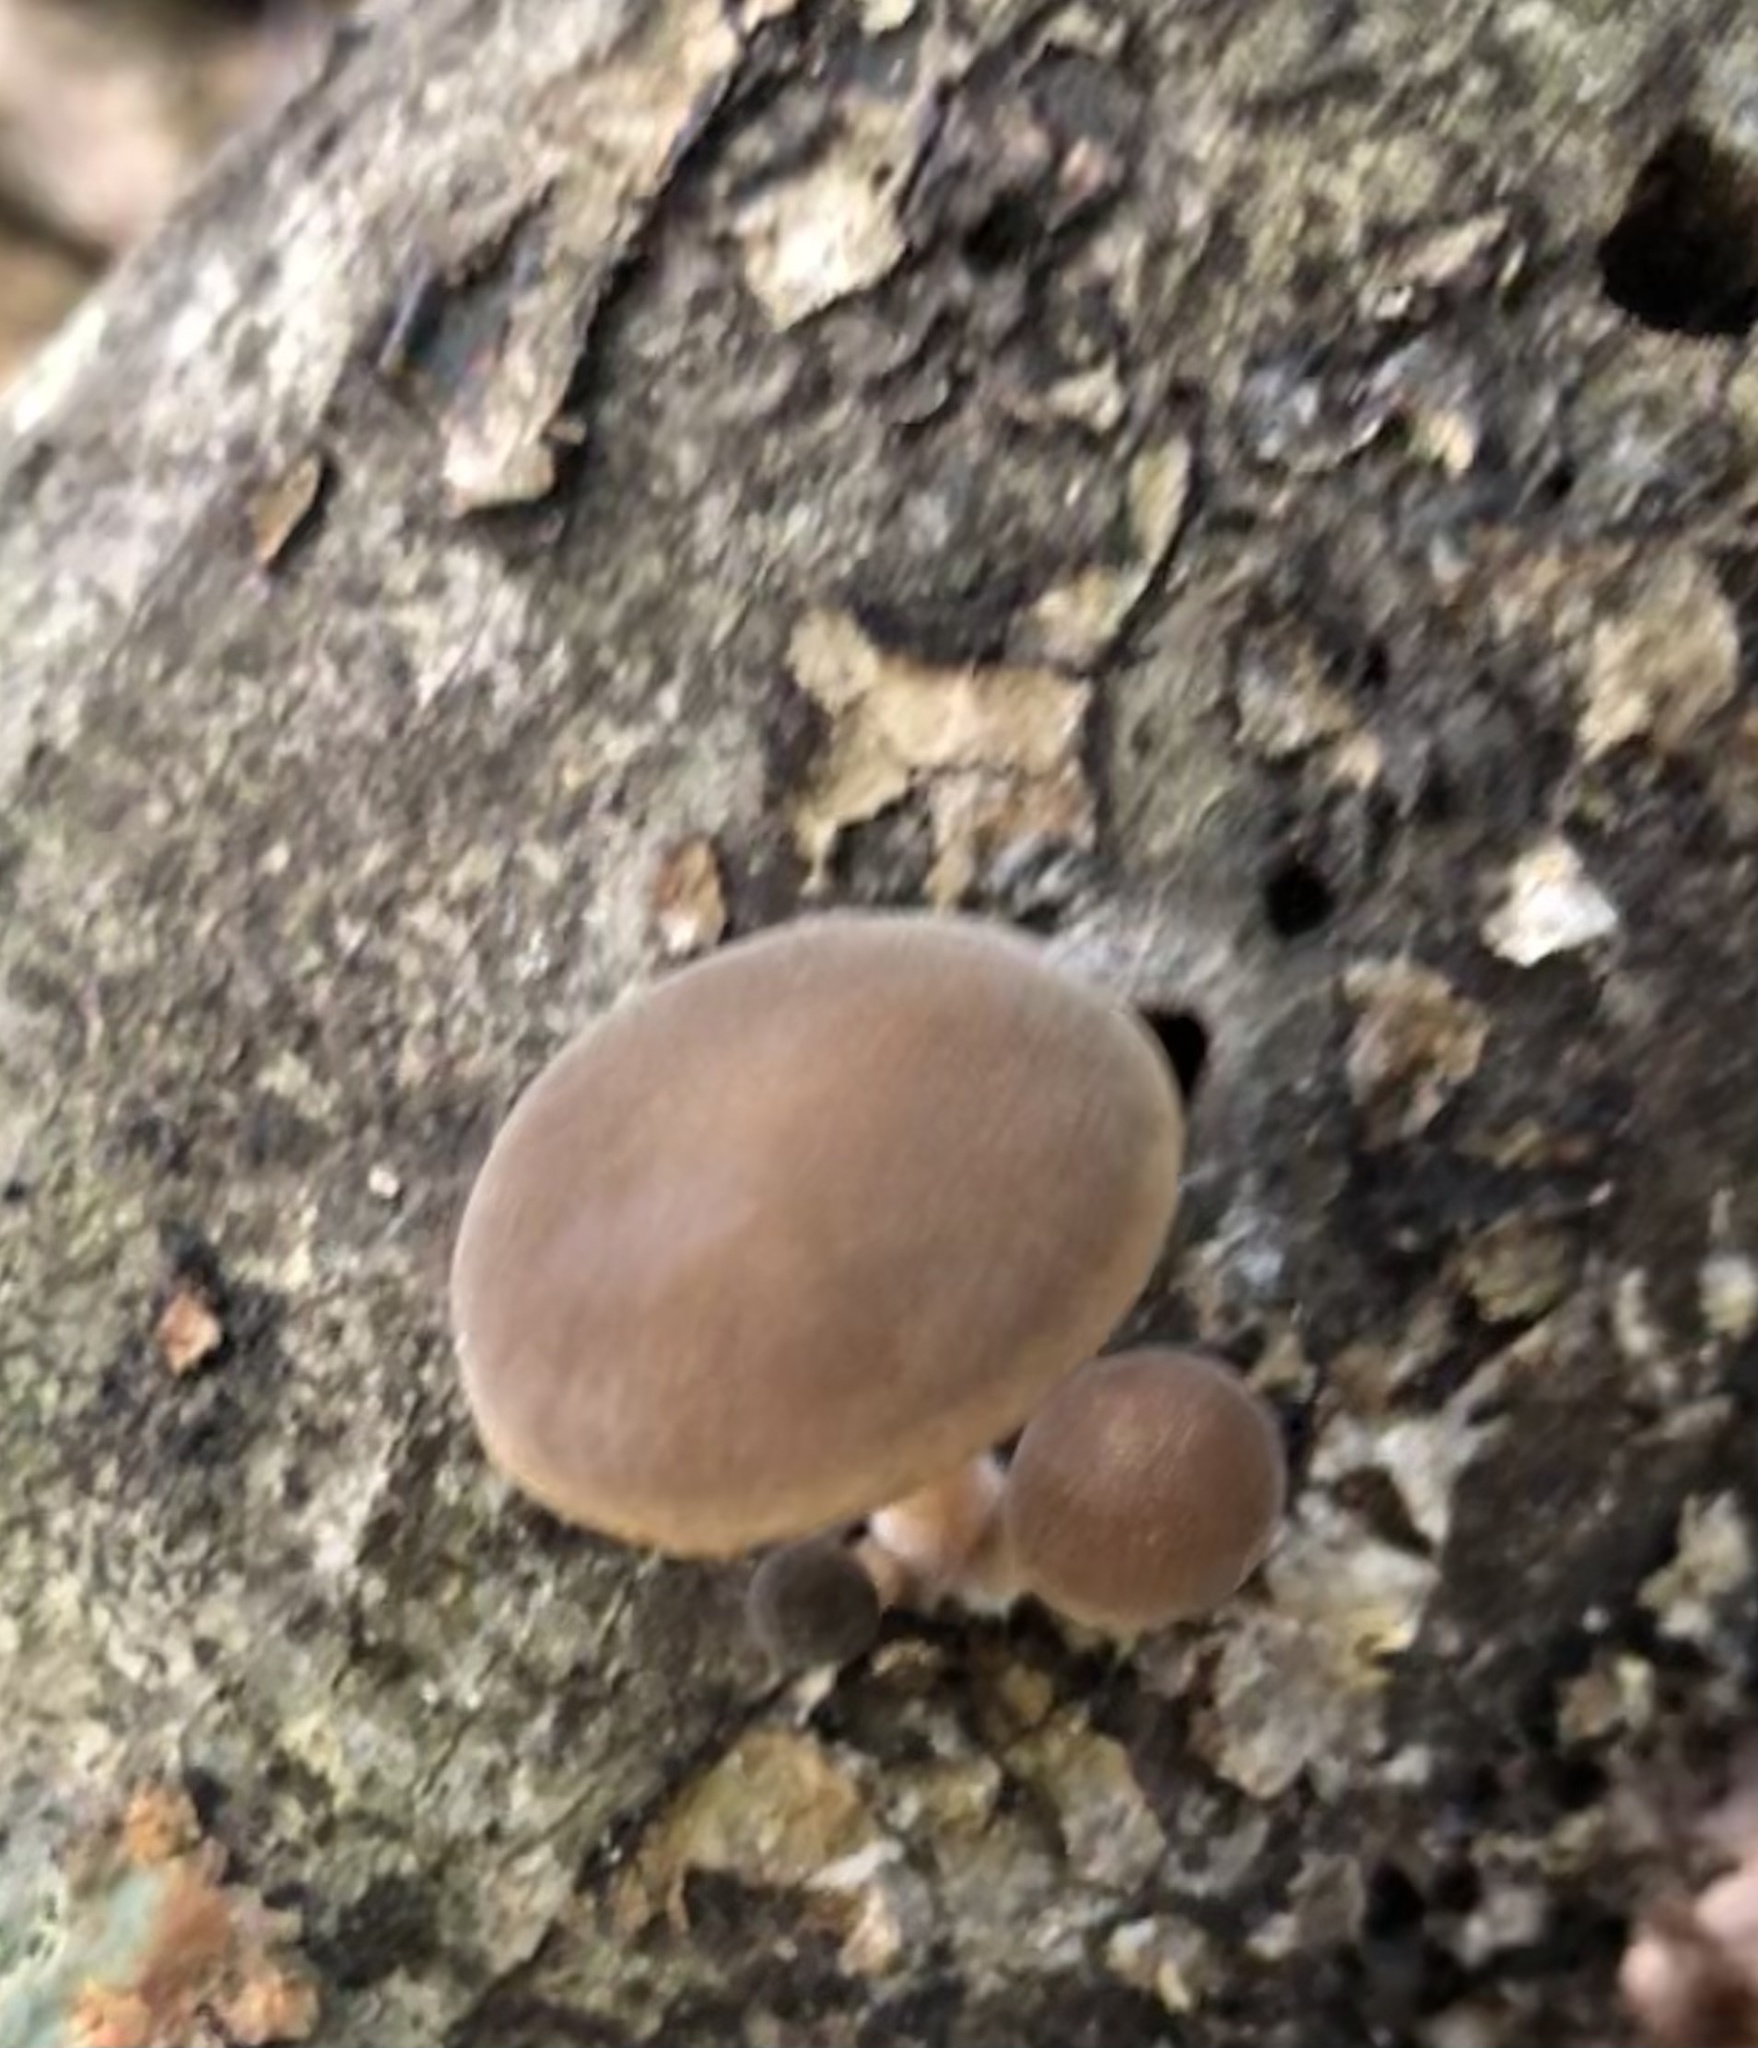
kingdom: Fungi
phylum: Basidiomycota
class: Agaricomycetes
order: Agaricales
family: Crepidotaceae
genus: Simocybe
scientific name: Simocybe phlebophora
